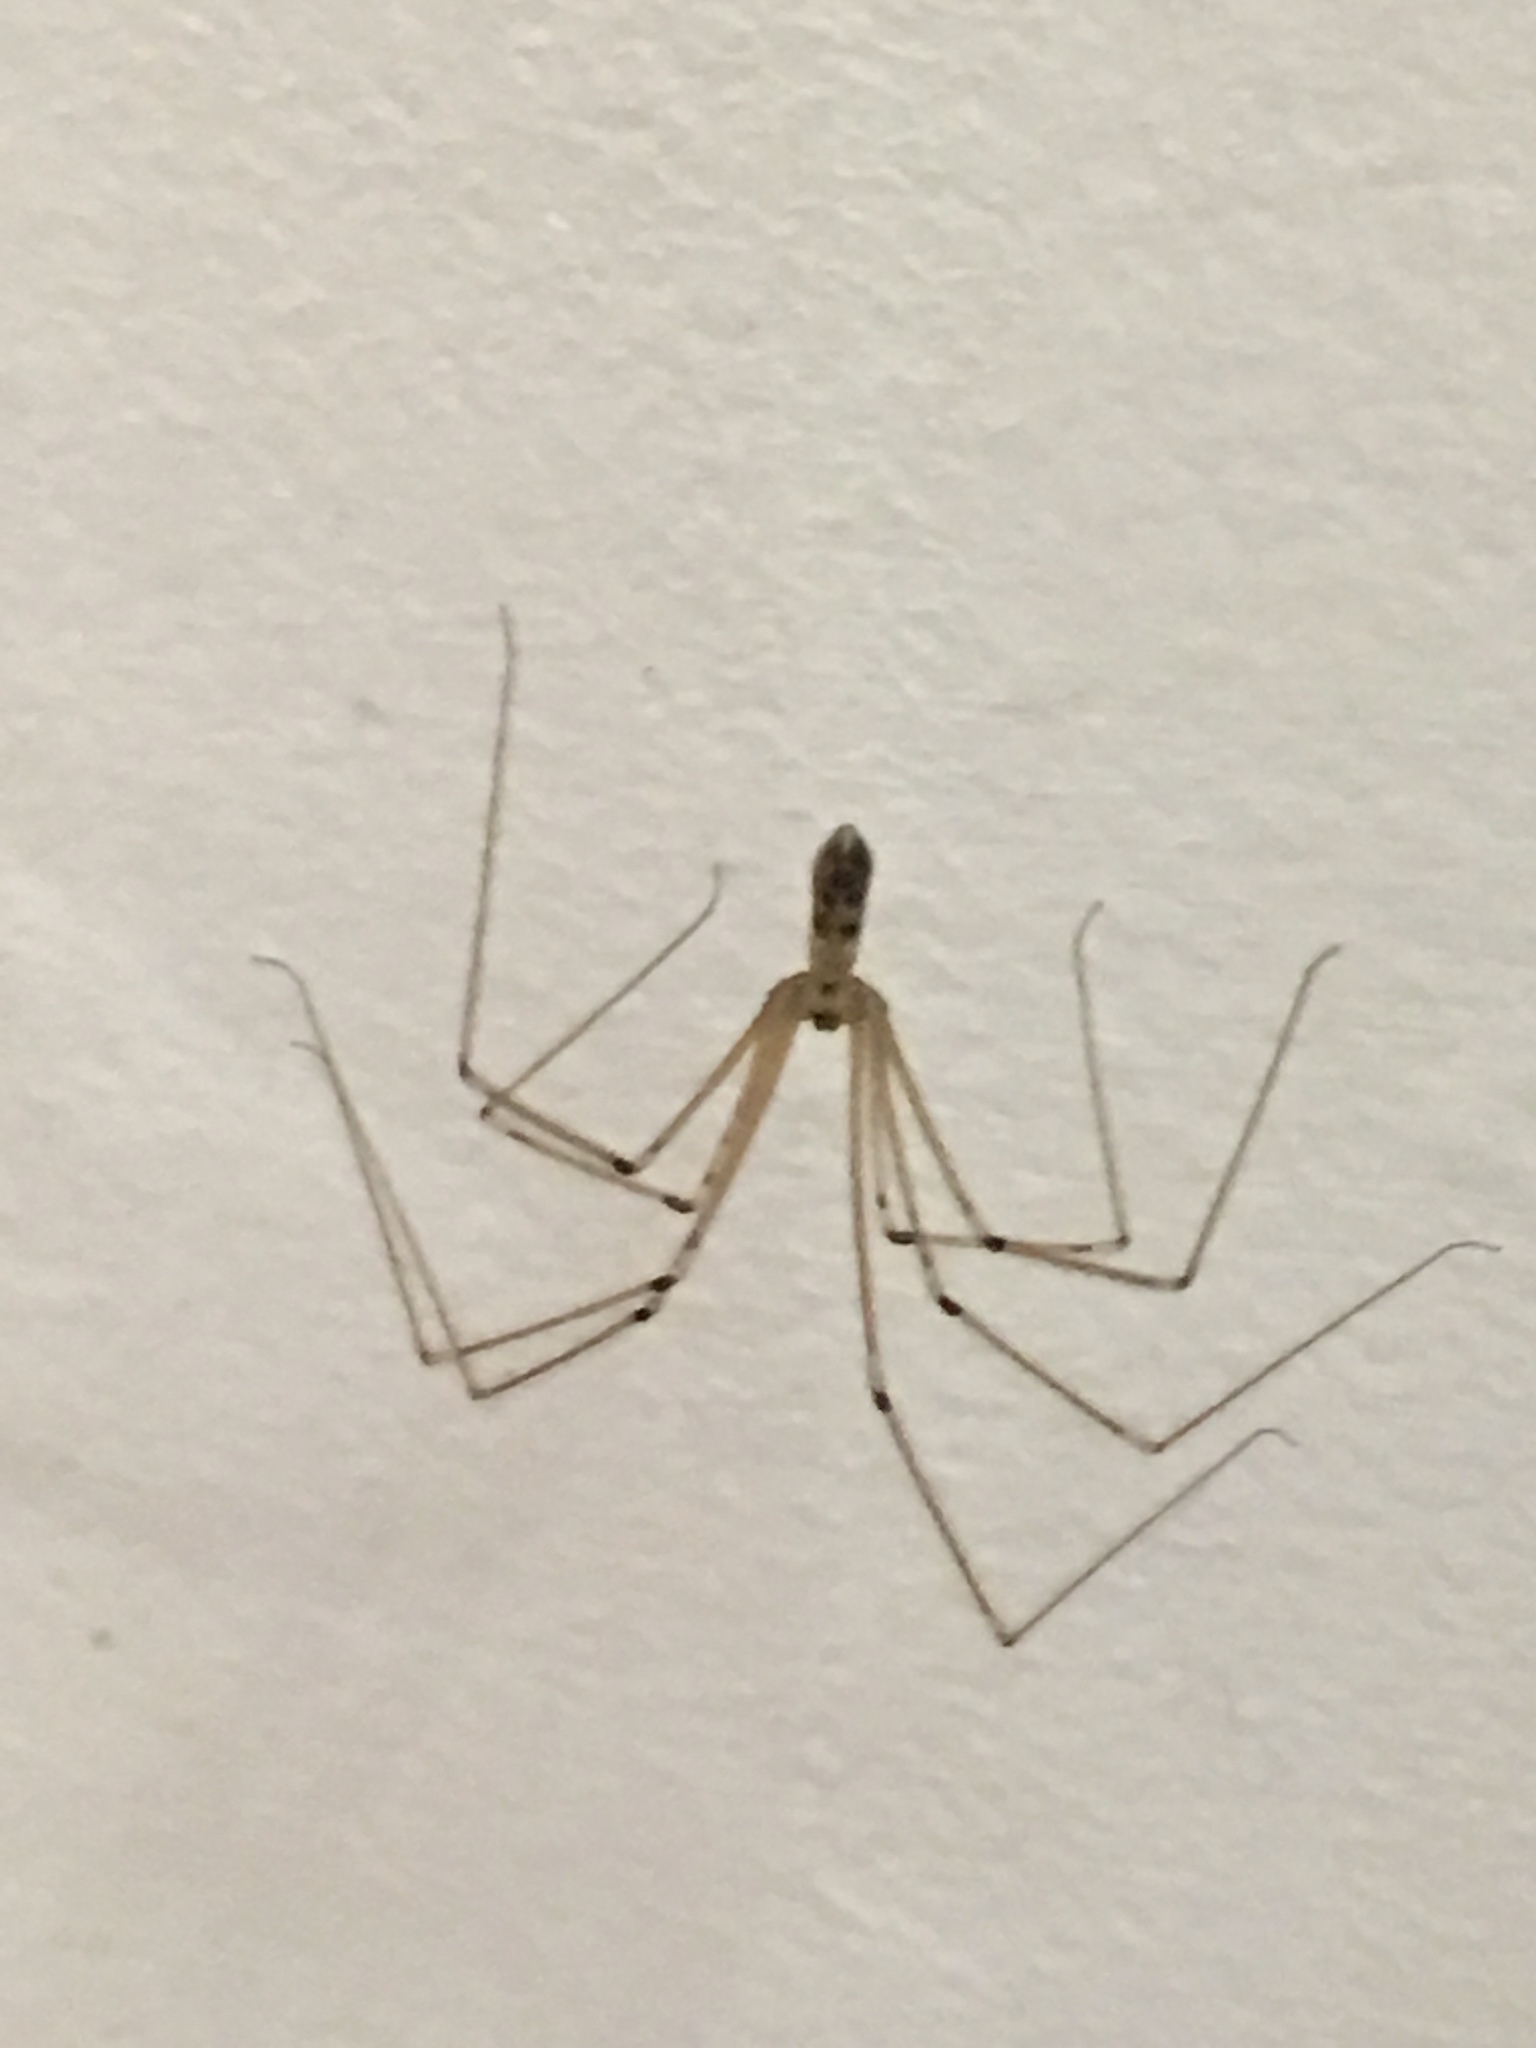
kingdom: Animalia
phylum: Arthropoda
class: Arachnida
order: Araneae
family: Pholcidae
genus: Pholcus
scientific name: Pholcus phalangioides
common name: Longbodied cellar spider
